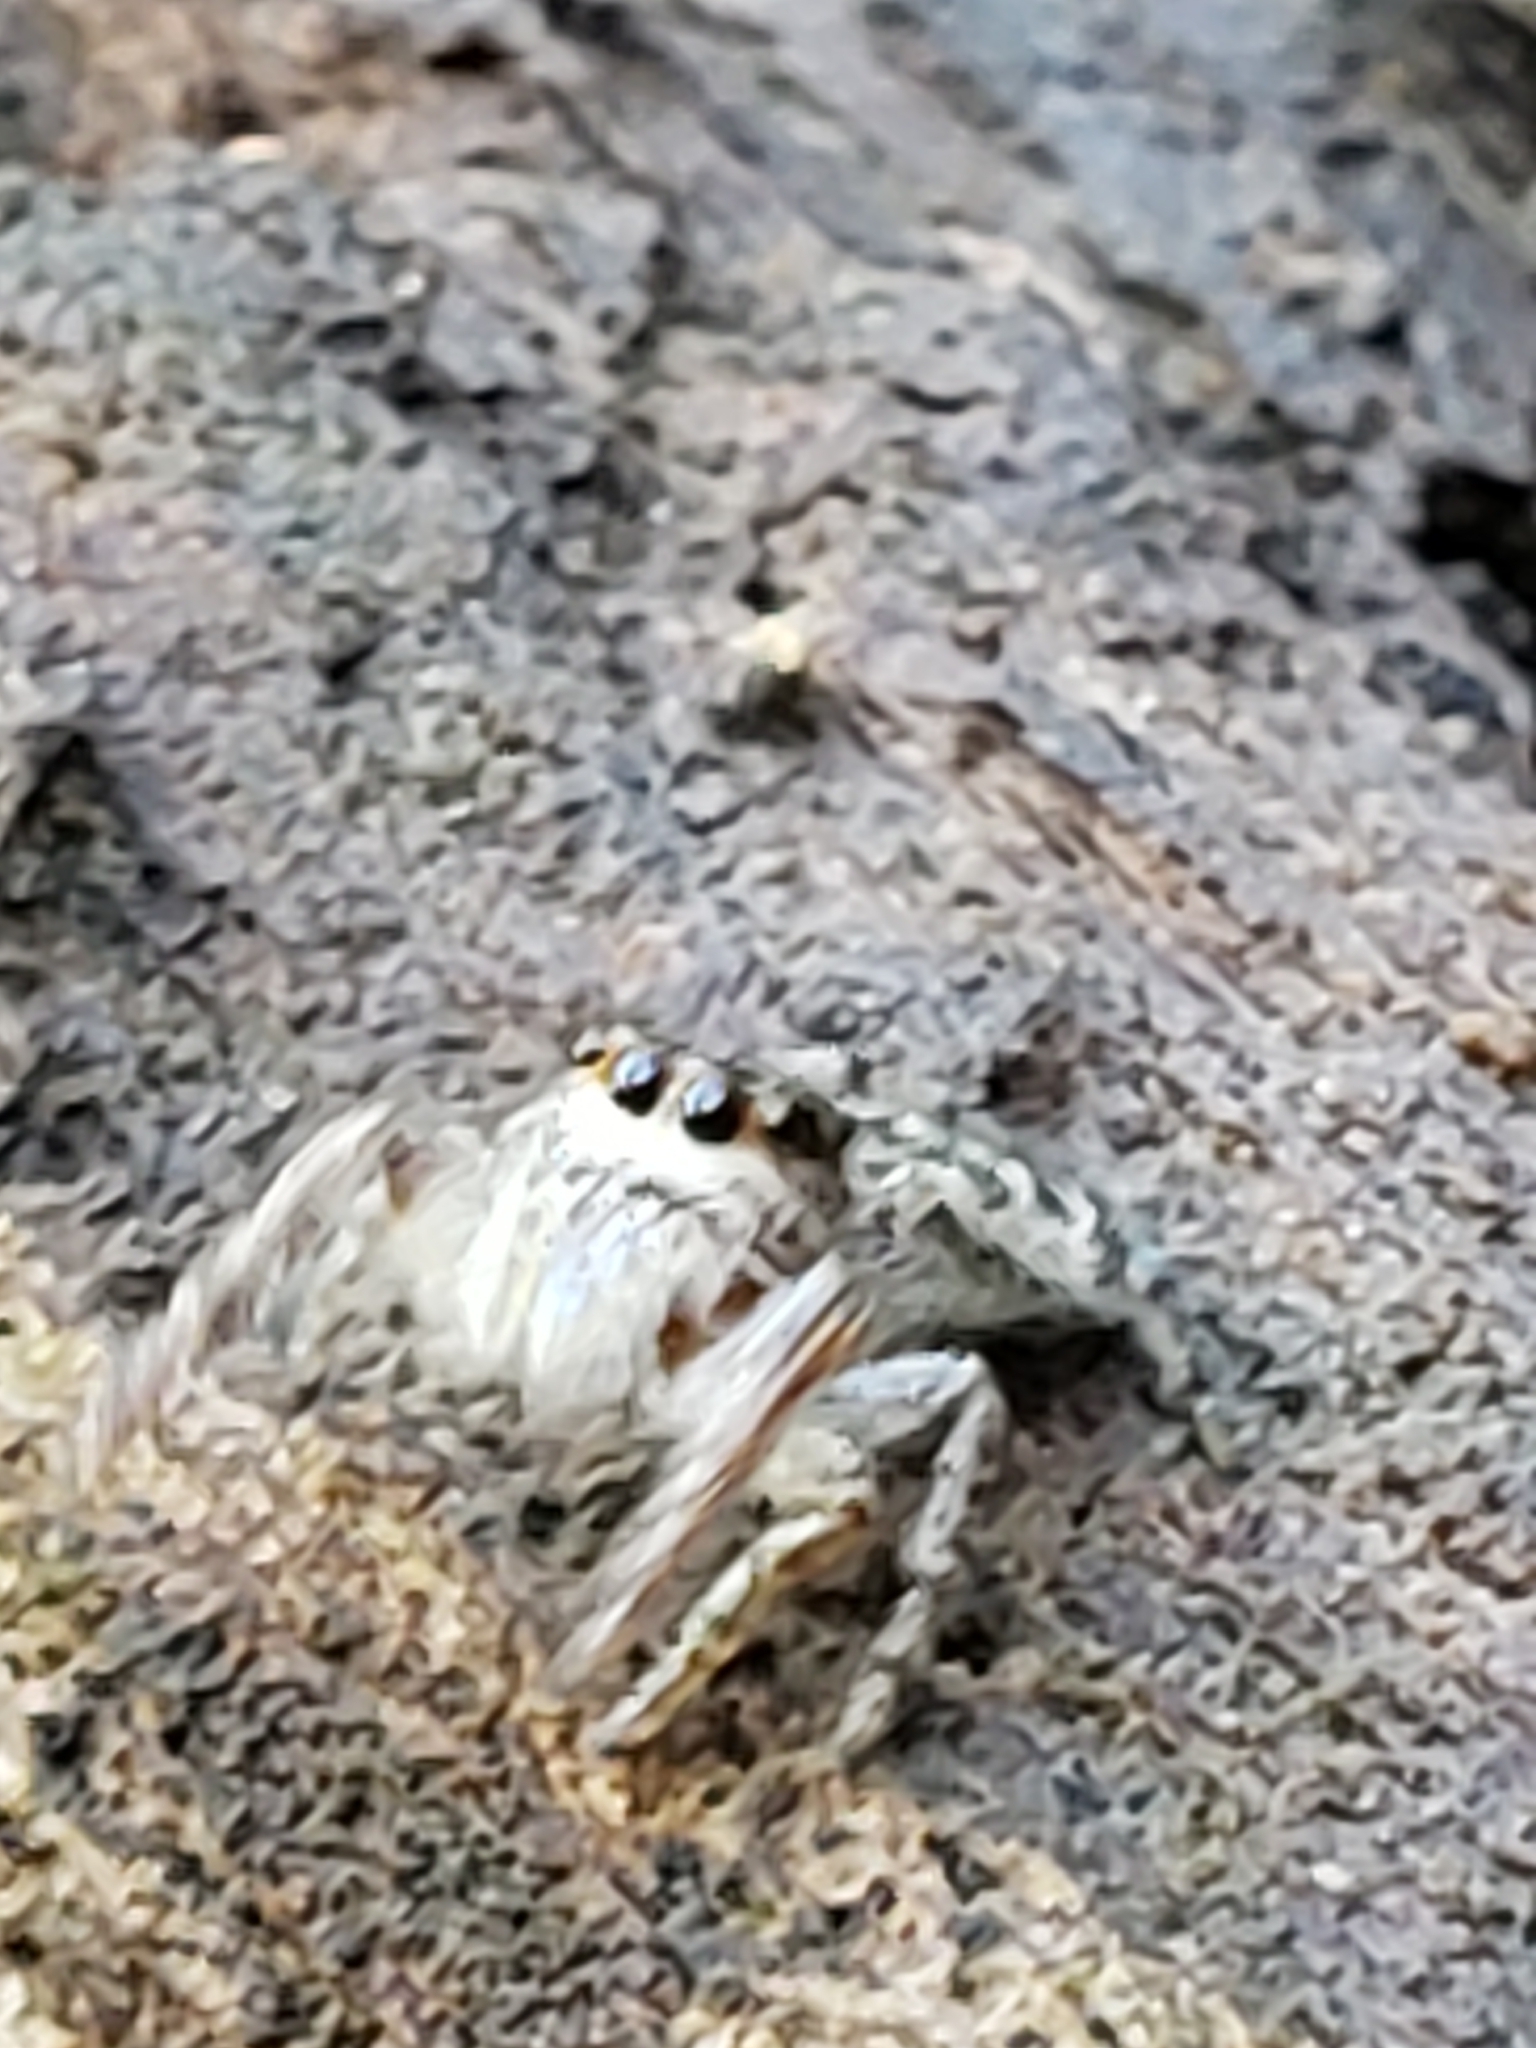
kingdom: Animalia
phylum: Arthropoda
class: Arachnida
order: Araneae
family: Salticidae
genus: Eris
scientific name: Eris militaris
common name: Bronze jumper
